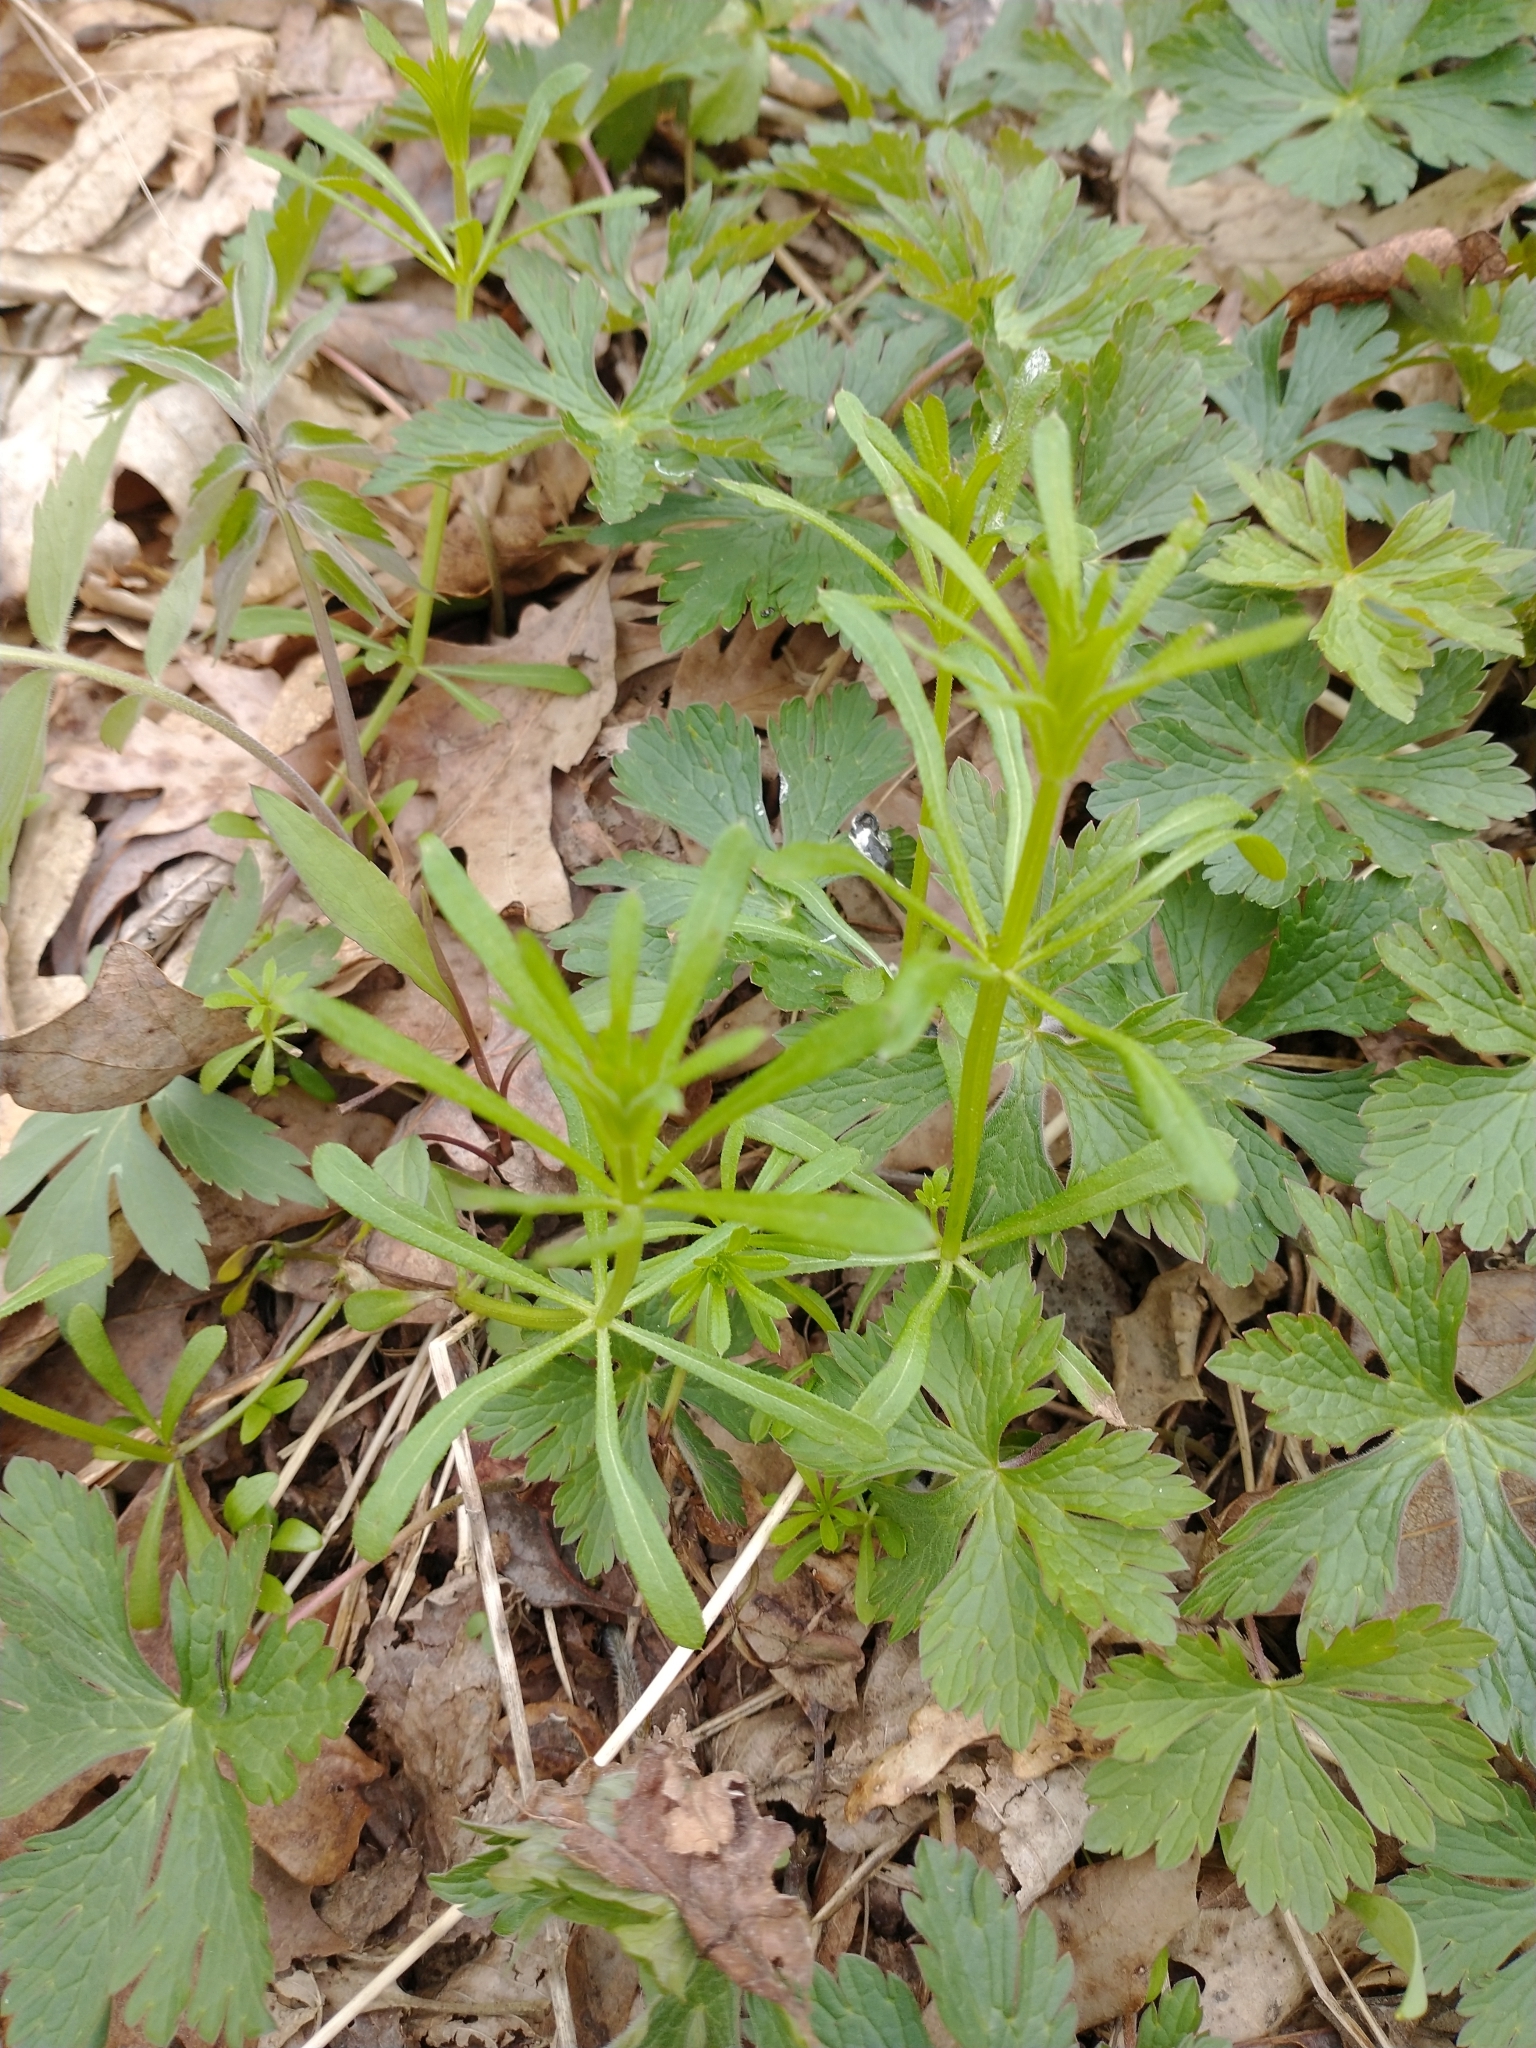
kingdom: Plantae
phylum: Tracheophyta
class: Magnoliopsida
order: Gentianales
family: Rubiaceae
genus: Galium
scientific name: Galium aparine
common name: Cleavers
